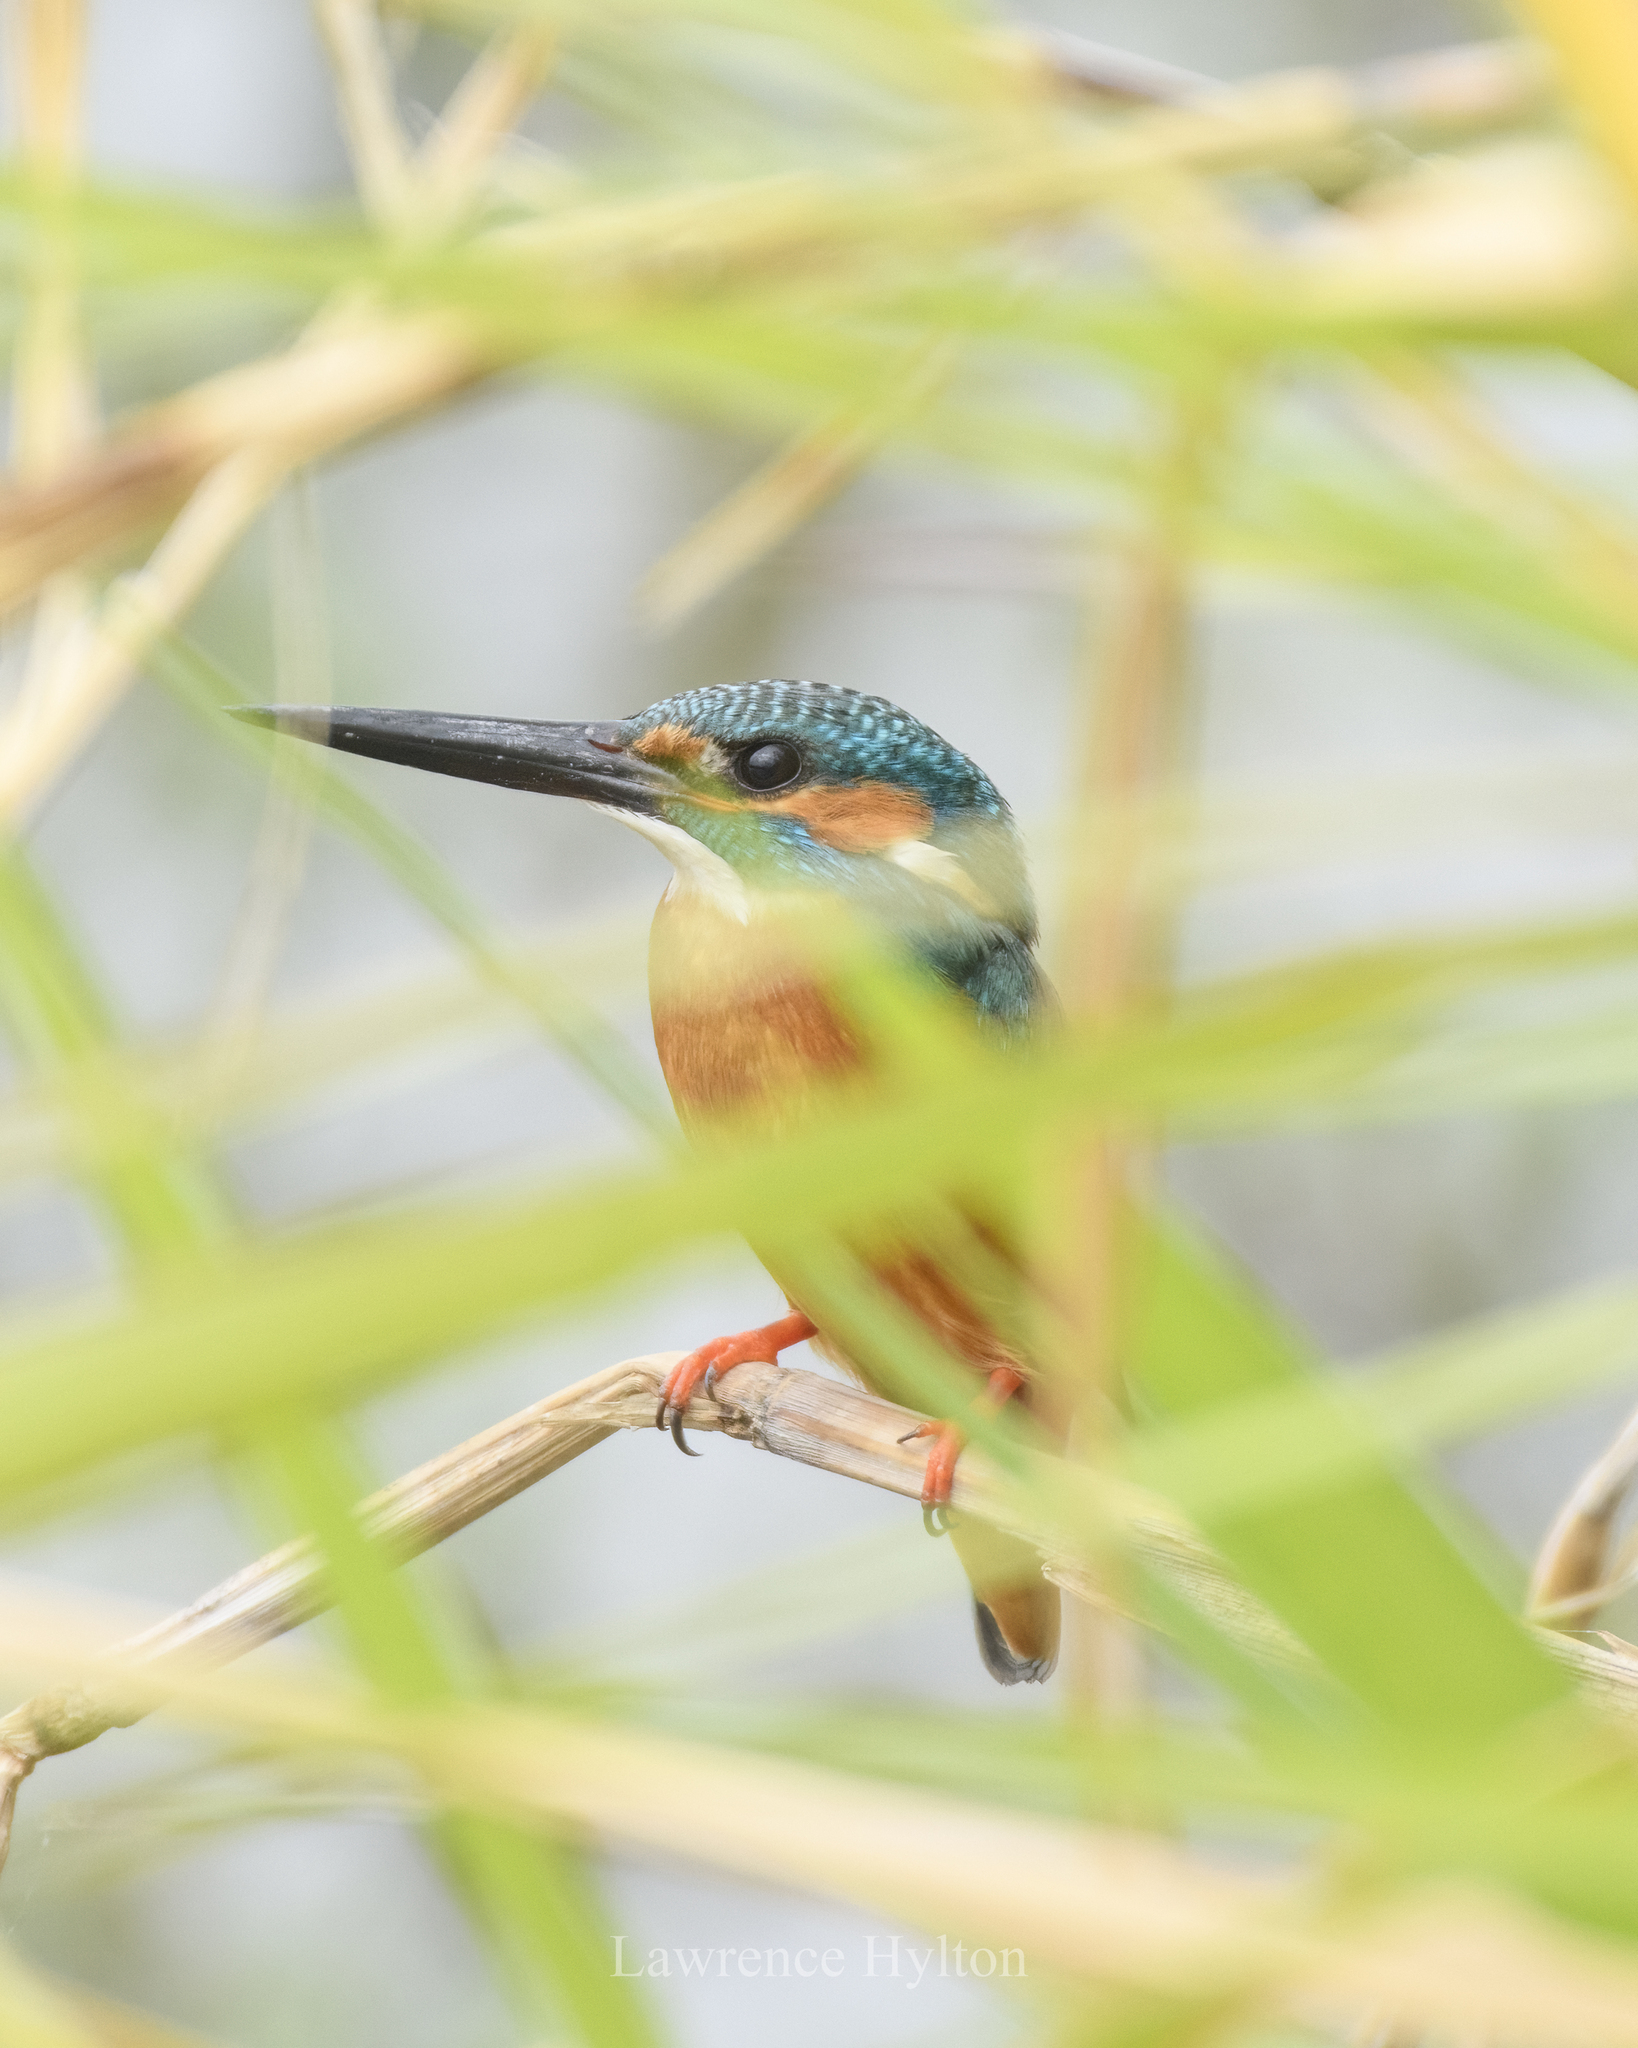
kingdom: Animalia
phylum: Chordata
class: Aves
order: Coraciiformes
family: Alcedinidae
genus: Alcedo
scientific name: Alcedo atthis
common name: Common kingfisher
